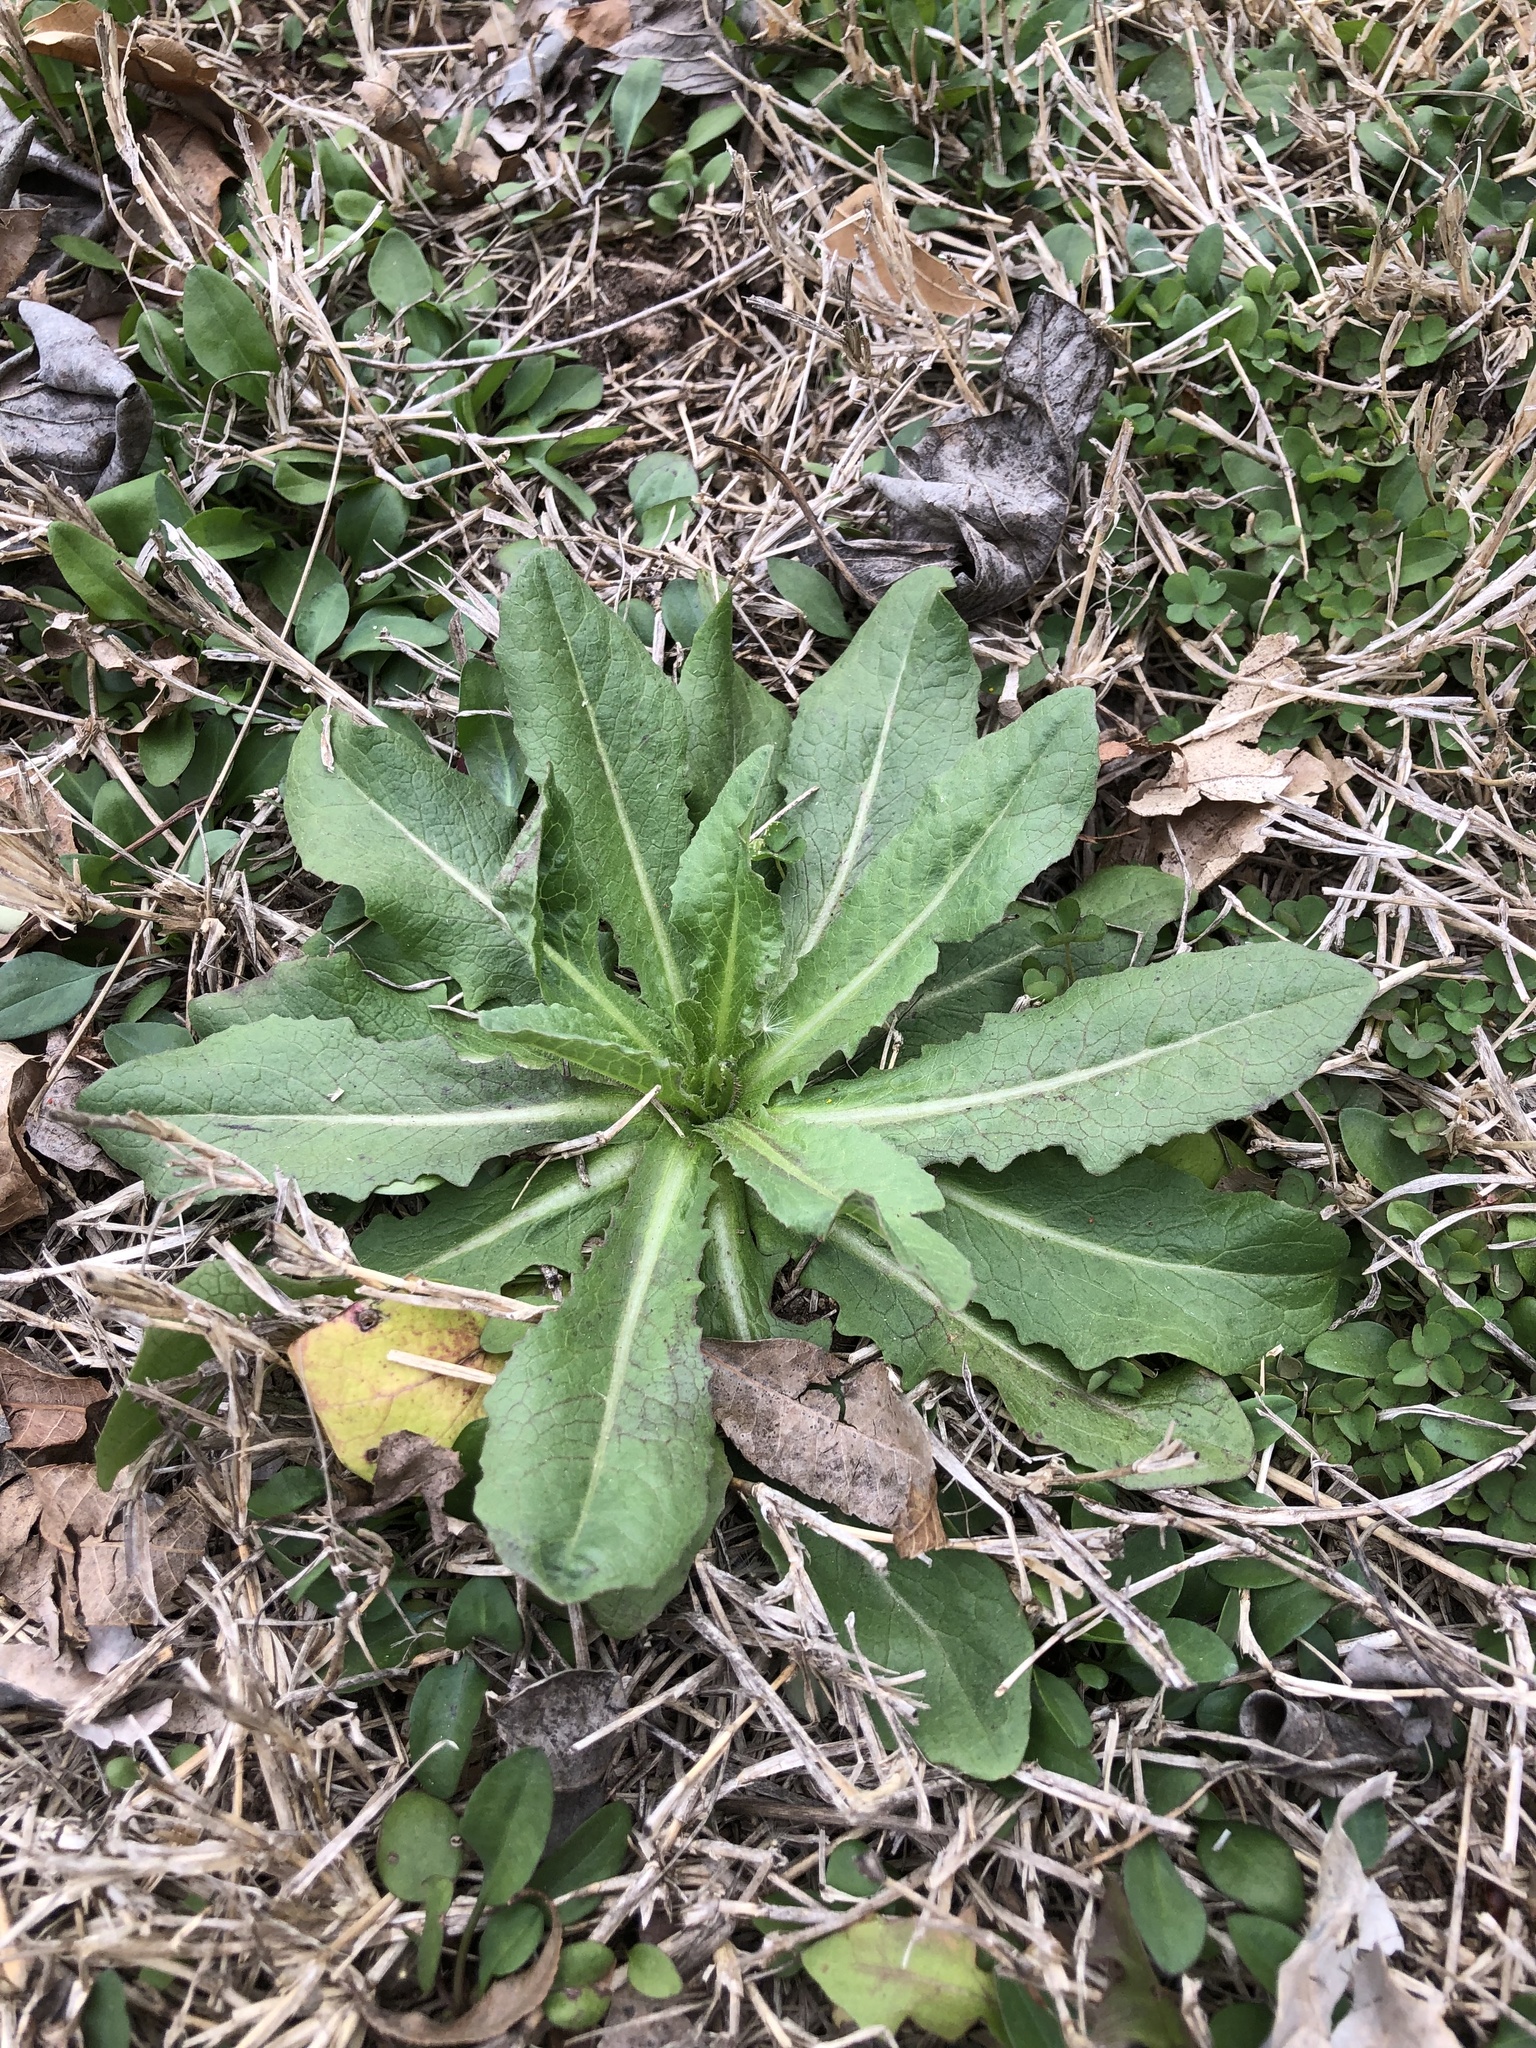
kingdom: Plantae
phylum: Tracheophyta
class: Magnoliopsida
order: Asterales
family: Asteraceae
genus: Lactuca
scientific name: Lactuca serriola
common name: Prickly lettuce
